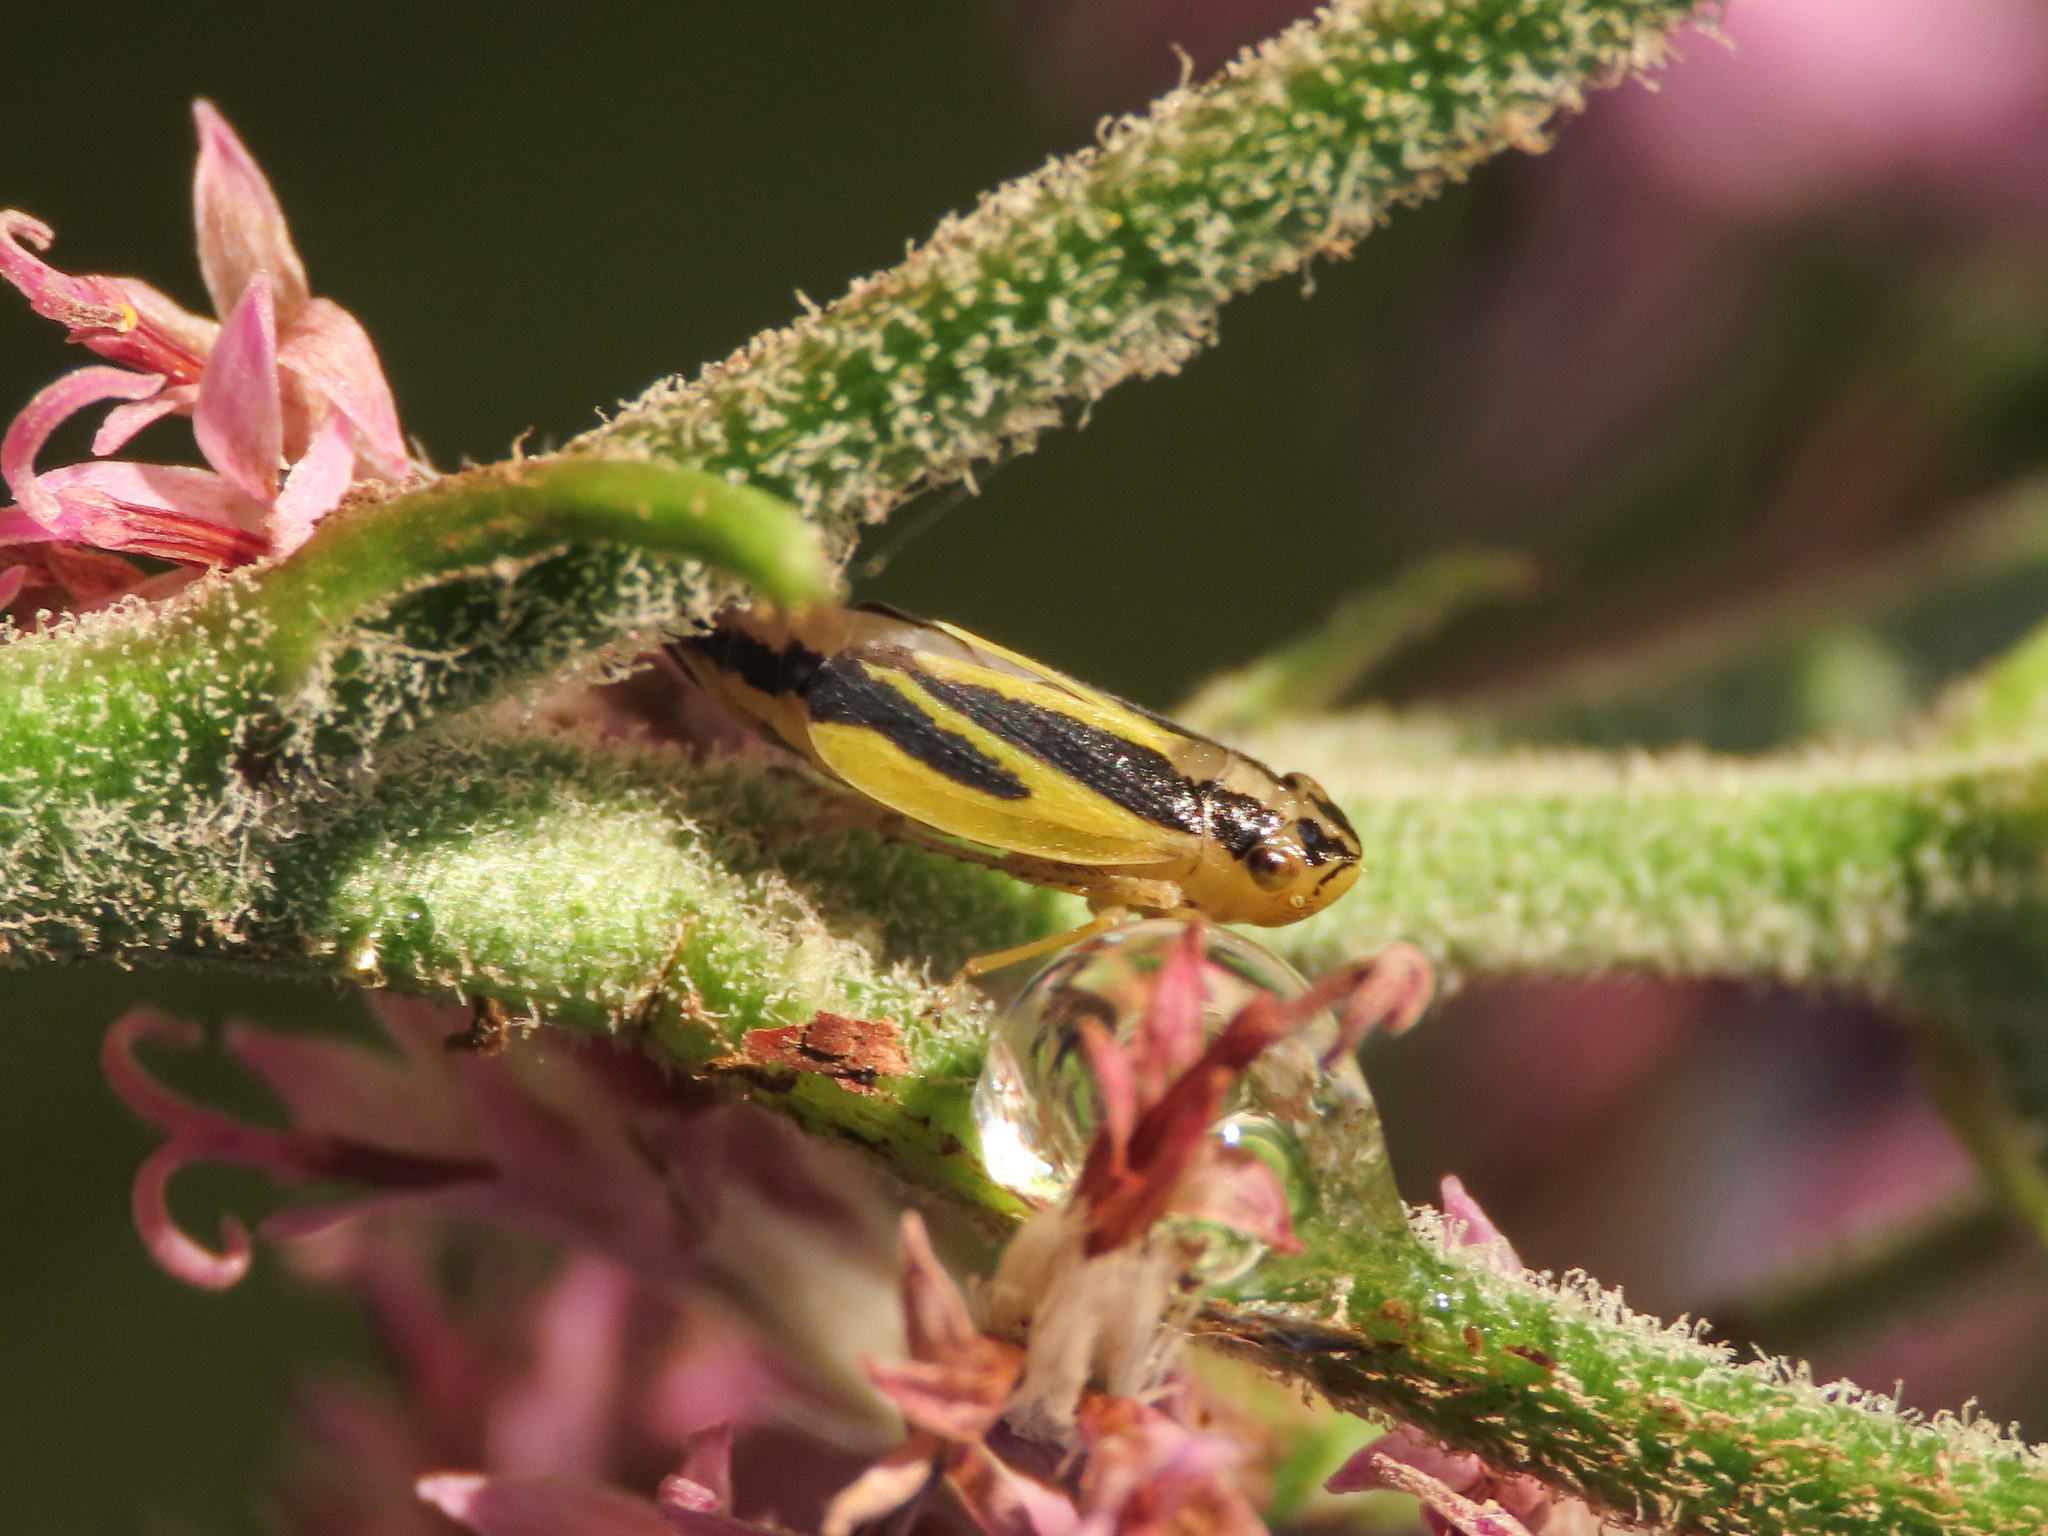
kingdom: Animalia
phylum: Arthropoda
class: Insecta
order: Hemiptera
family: Cicadellidae
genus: Evacanthus
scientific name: Evacanthus interruptus
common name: Leafhopper
